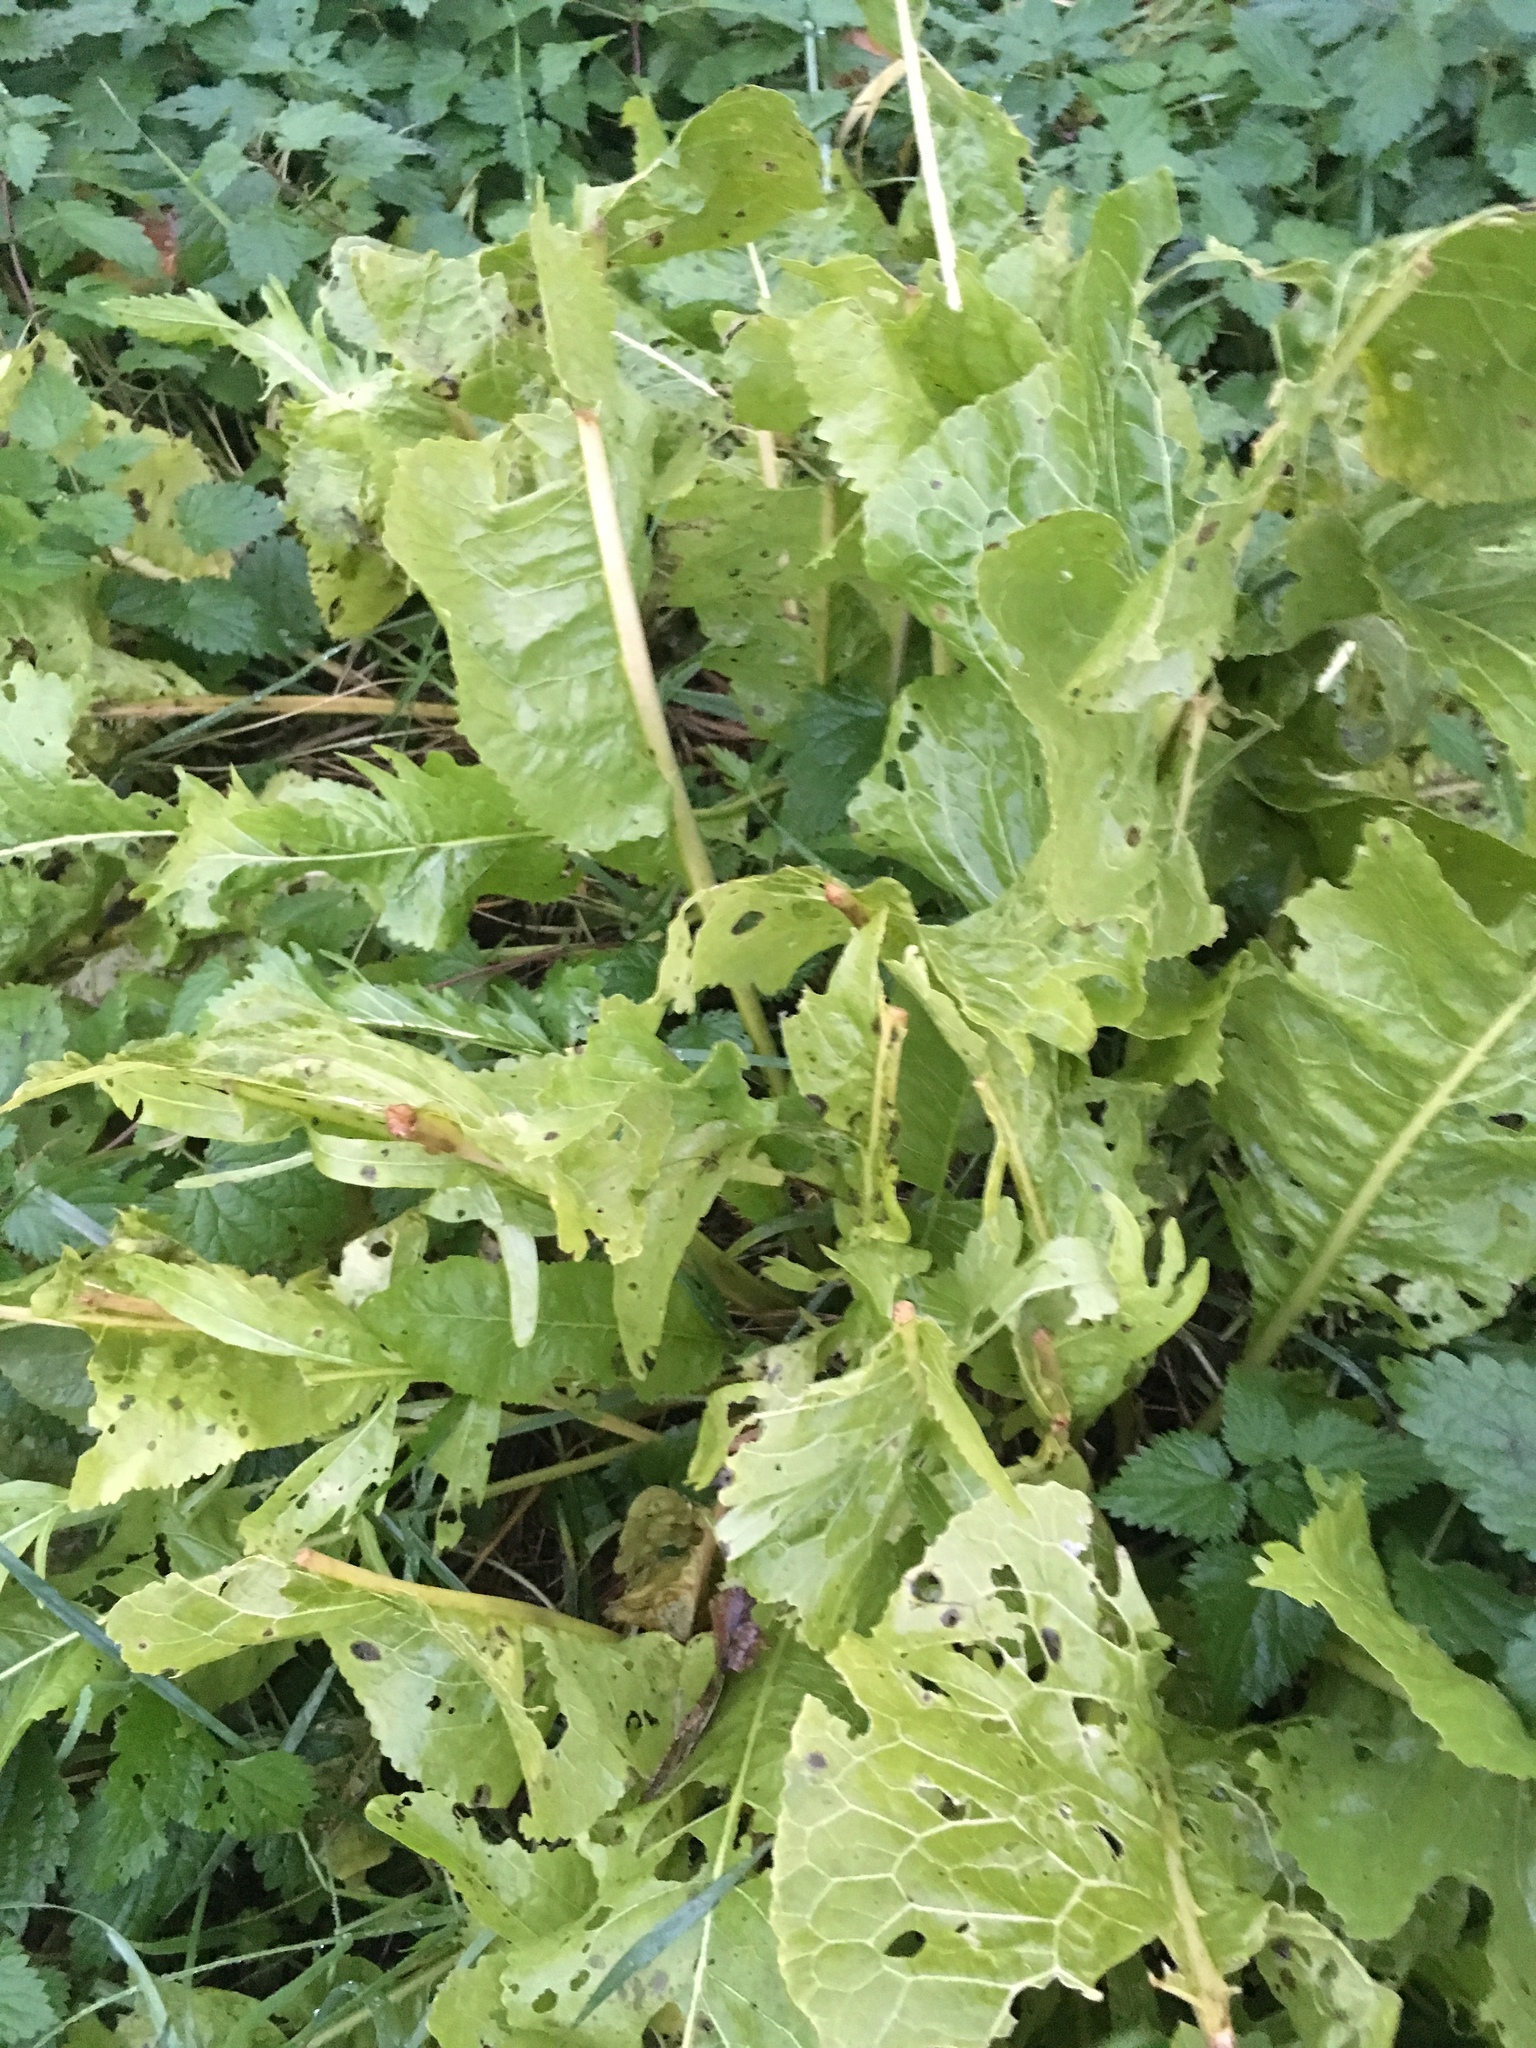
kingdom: Plantae
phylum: Tracheophyta
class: Magnoliopsida
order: Brassicales
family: Brassicaceae
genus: Armoracia
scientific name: Armoracia rusticana
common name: Horseradish
